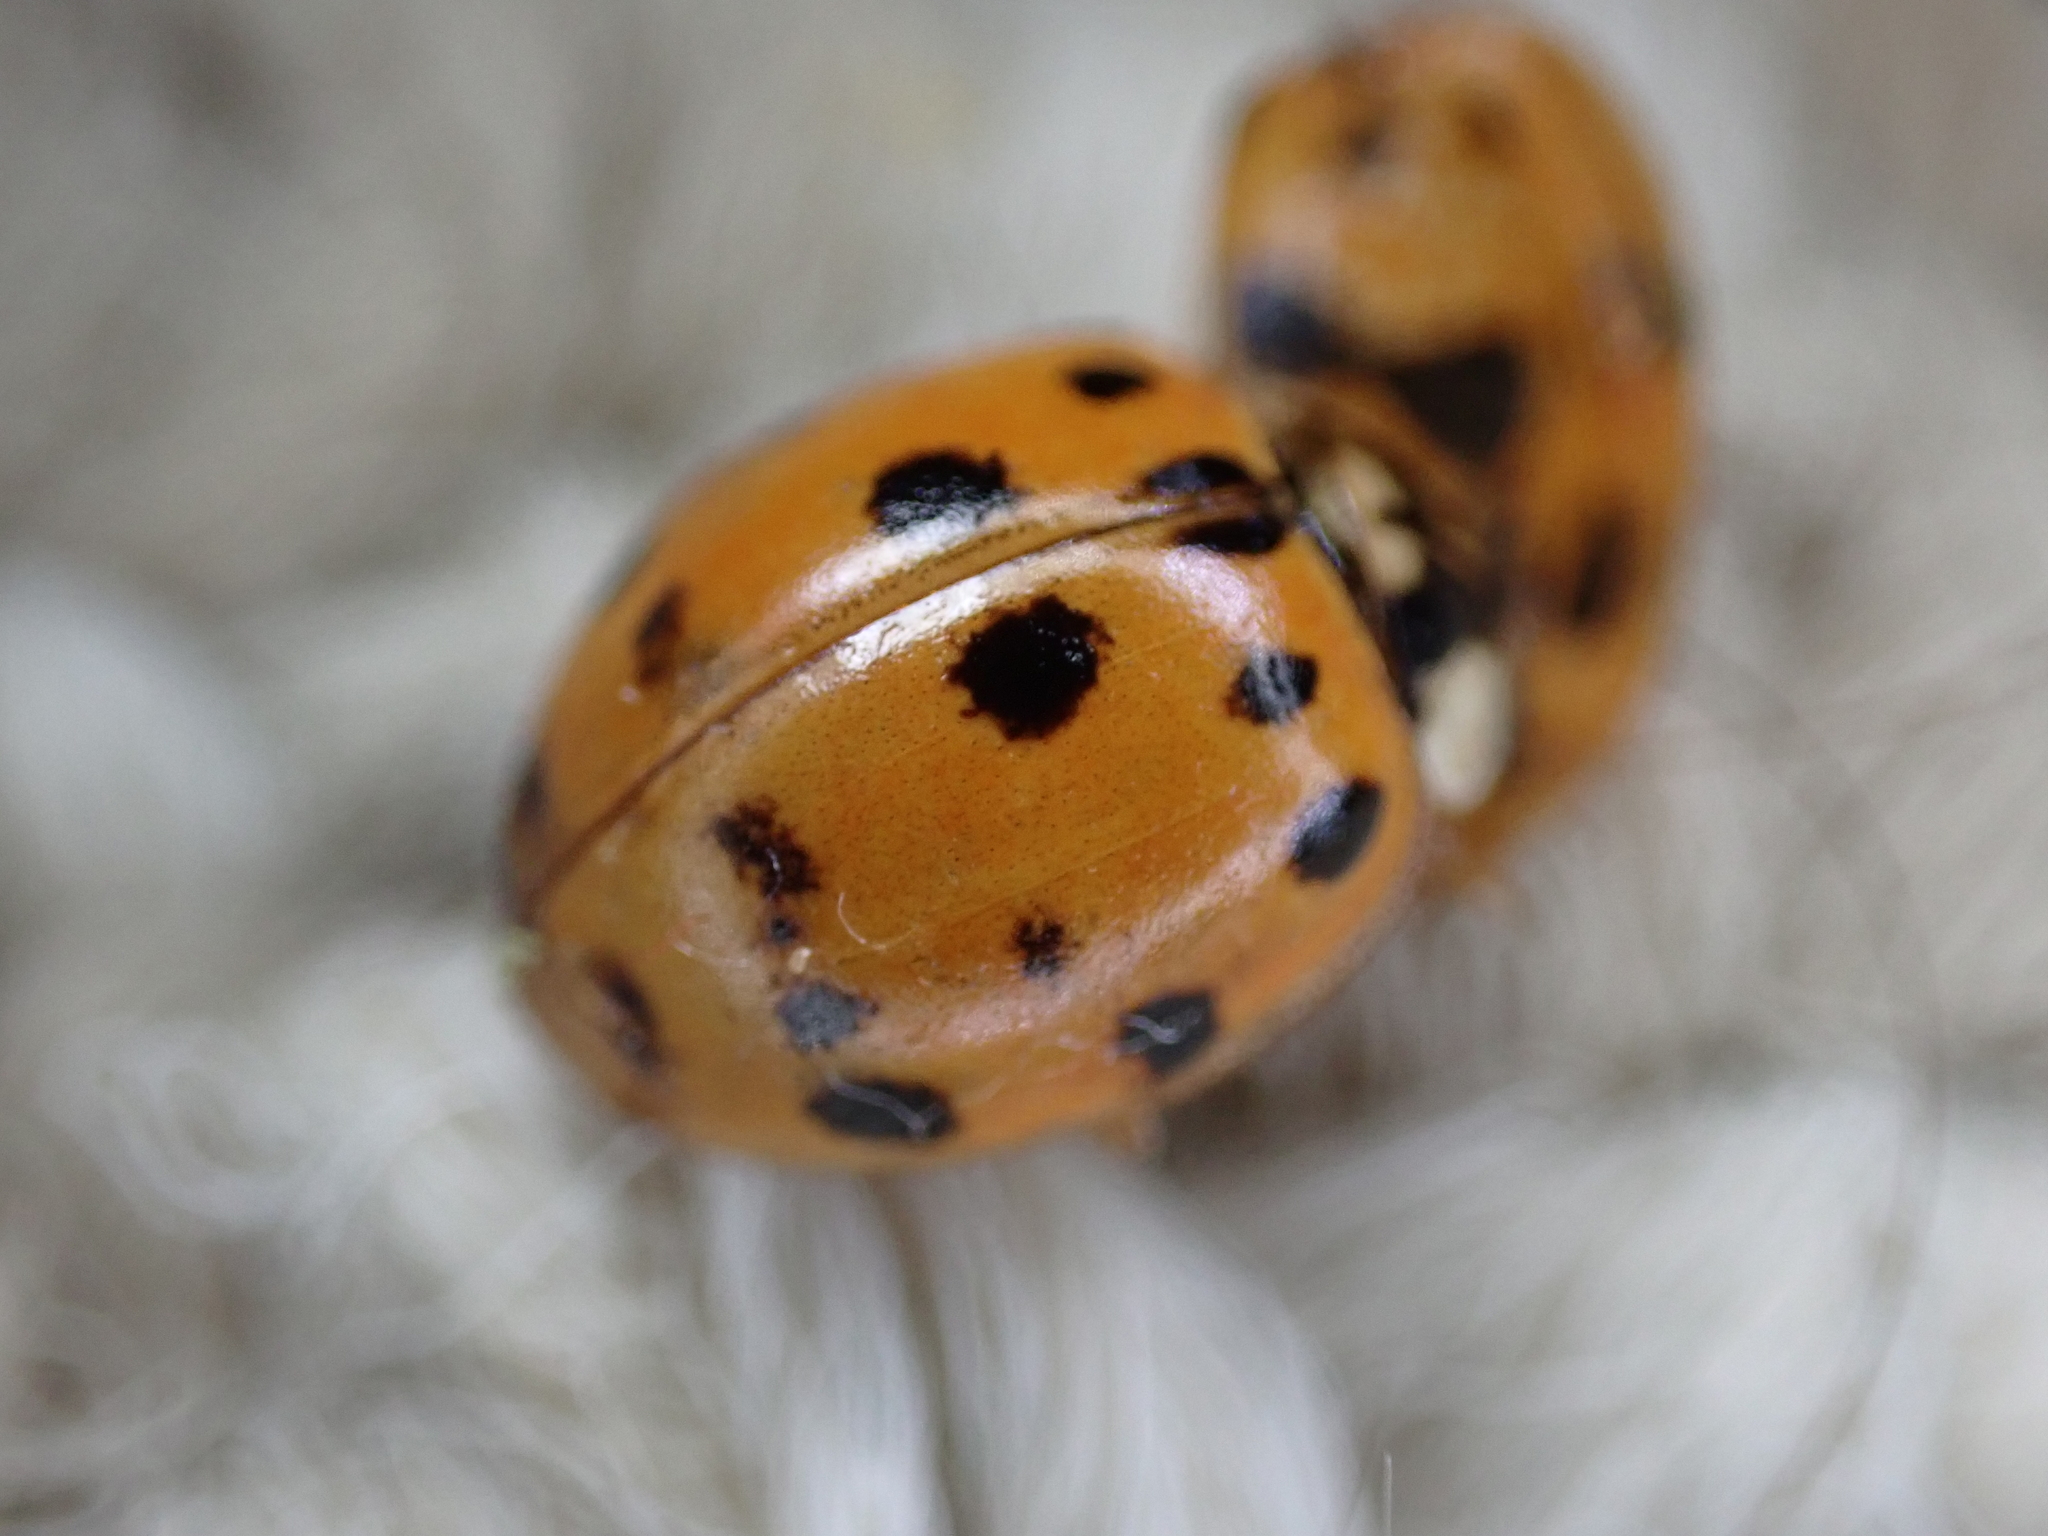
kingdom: Animalia
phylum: Arthropoda
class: Insecta
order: Coleoptera
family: Coccinellidae
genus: Harmonia
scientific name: Harmonia axyridis
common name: Harlequin ladybird
